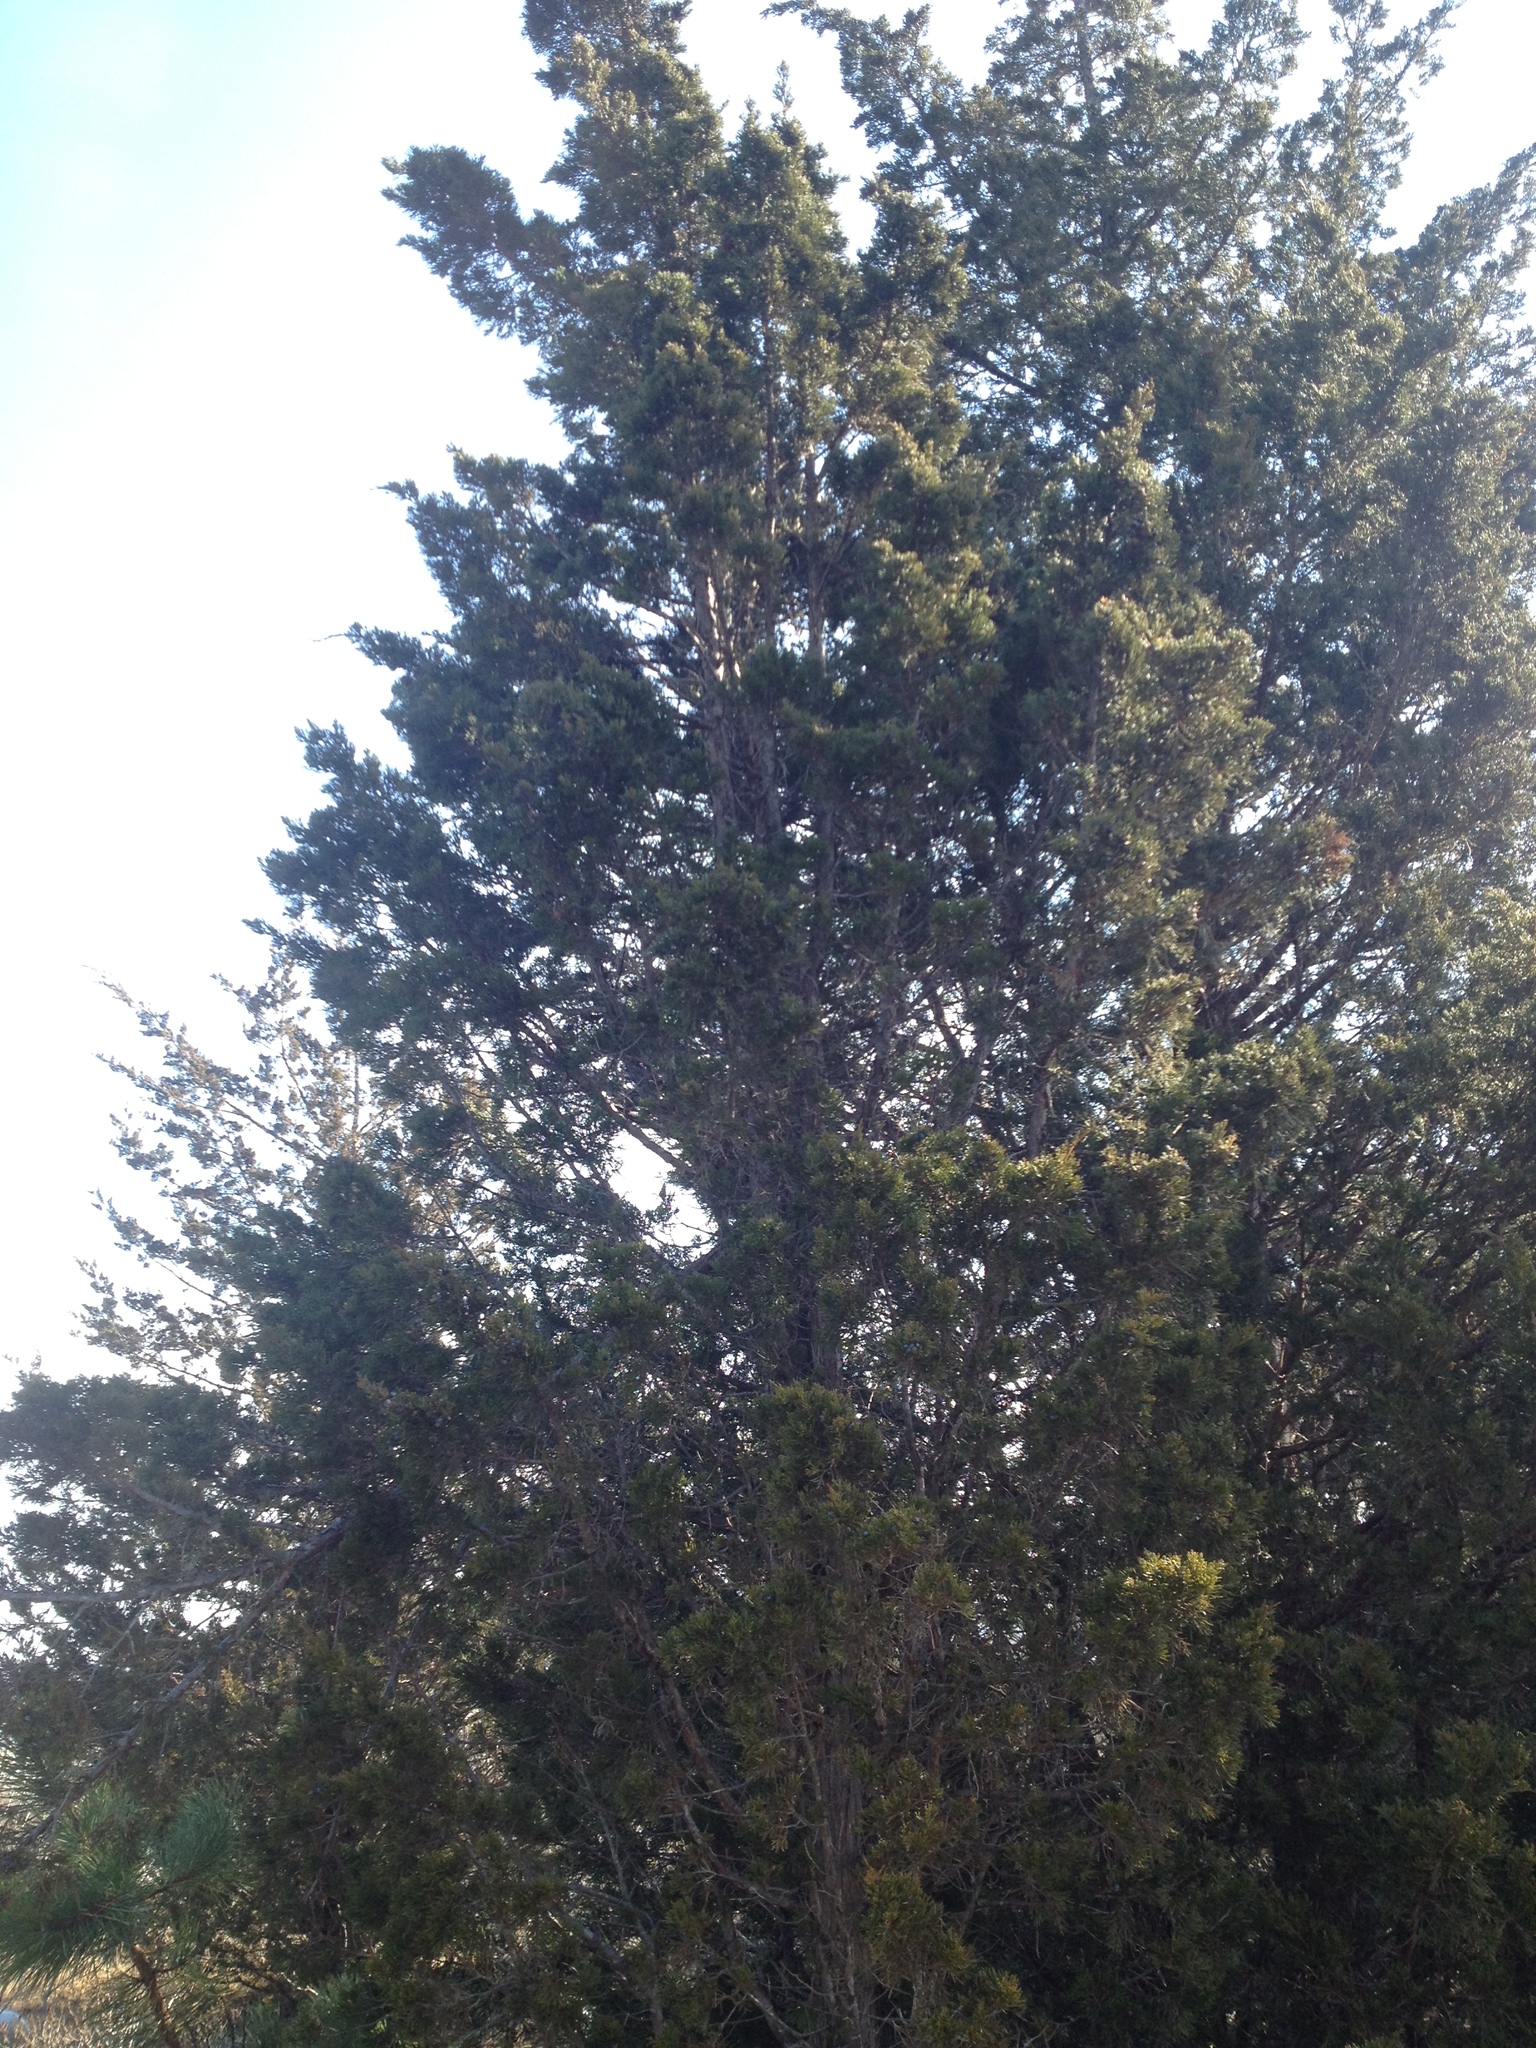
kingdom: Plantae
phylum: Tracheophyta
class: Pinopsida
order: Pinales
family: Cupressaceae
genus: Juniperus
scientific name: Juniperus virginiana
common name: Red juniper
